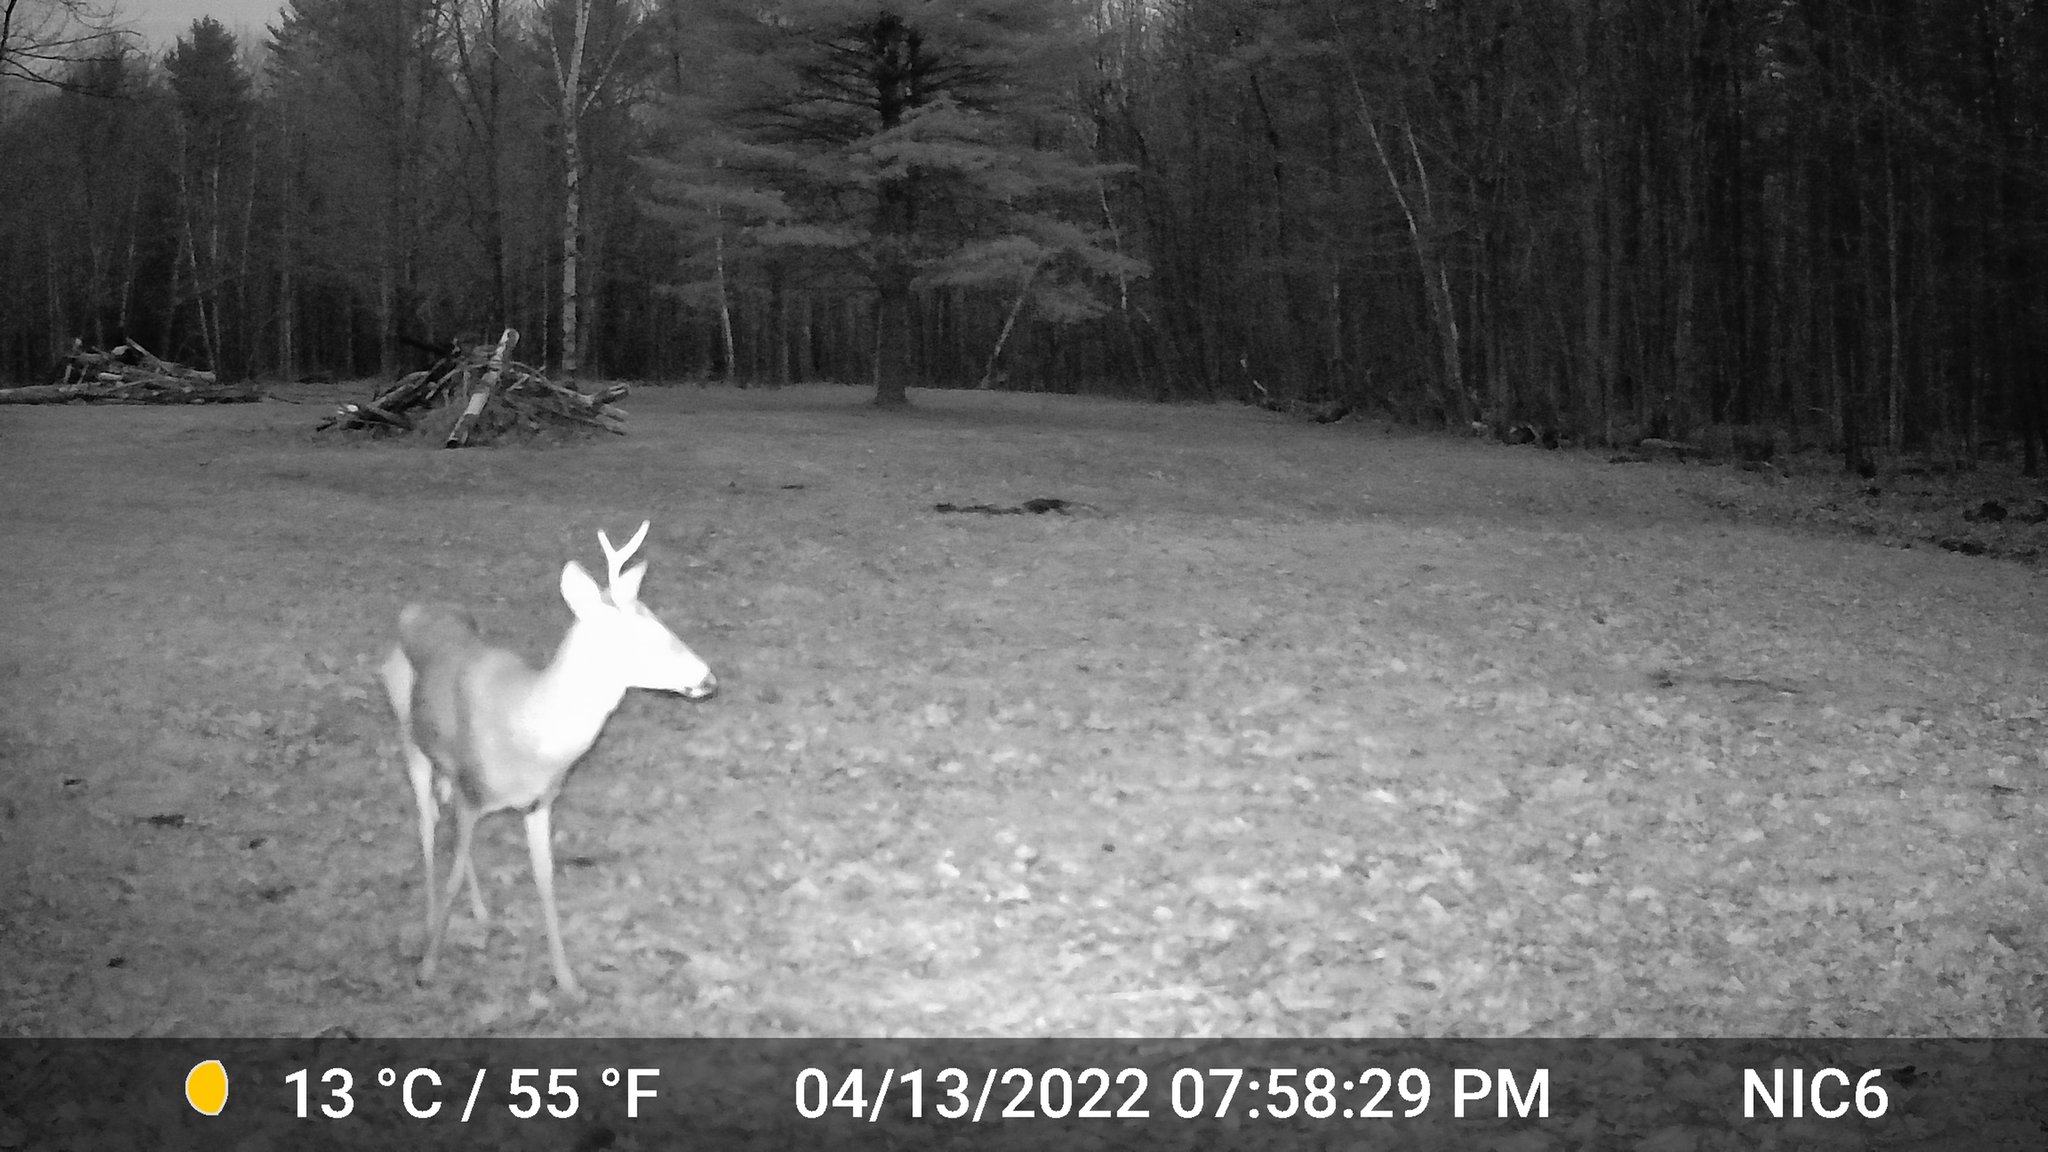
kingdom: Animalia
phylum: Chordata
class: Mammalia
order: Artiodactyla
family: Cervidae
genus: Odocoileus
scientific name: Odocoileus virginianus
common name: White-tailed deer
